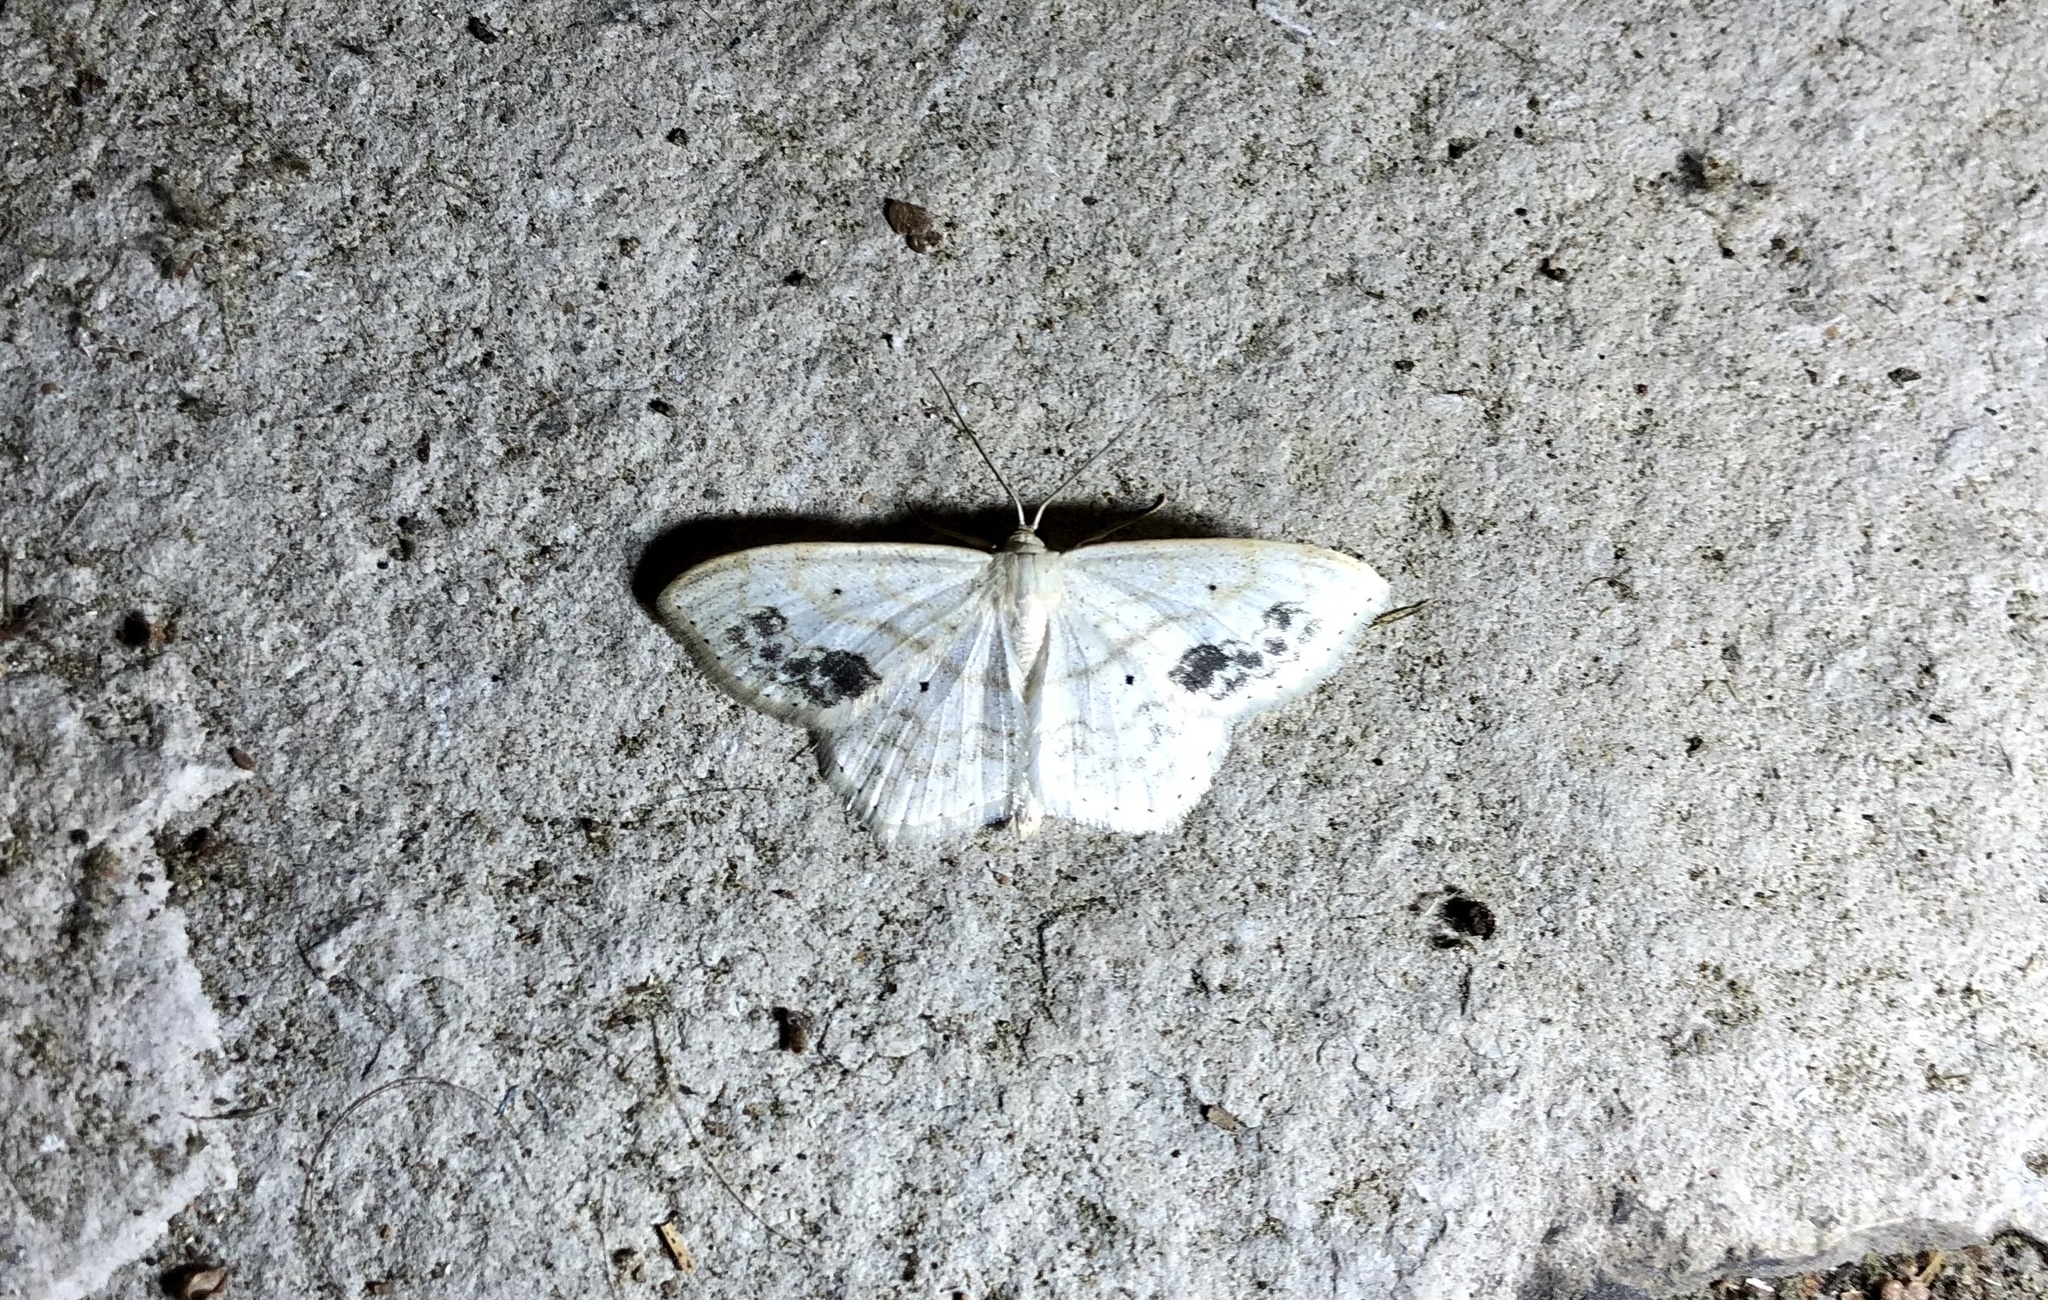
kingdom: Animalia
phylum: Arthropoda
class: Insecta
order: Lepidoptera
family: Geometridae
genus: Scopula
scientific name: Scopula limboundata
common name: Large lace border
